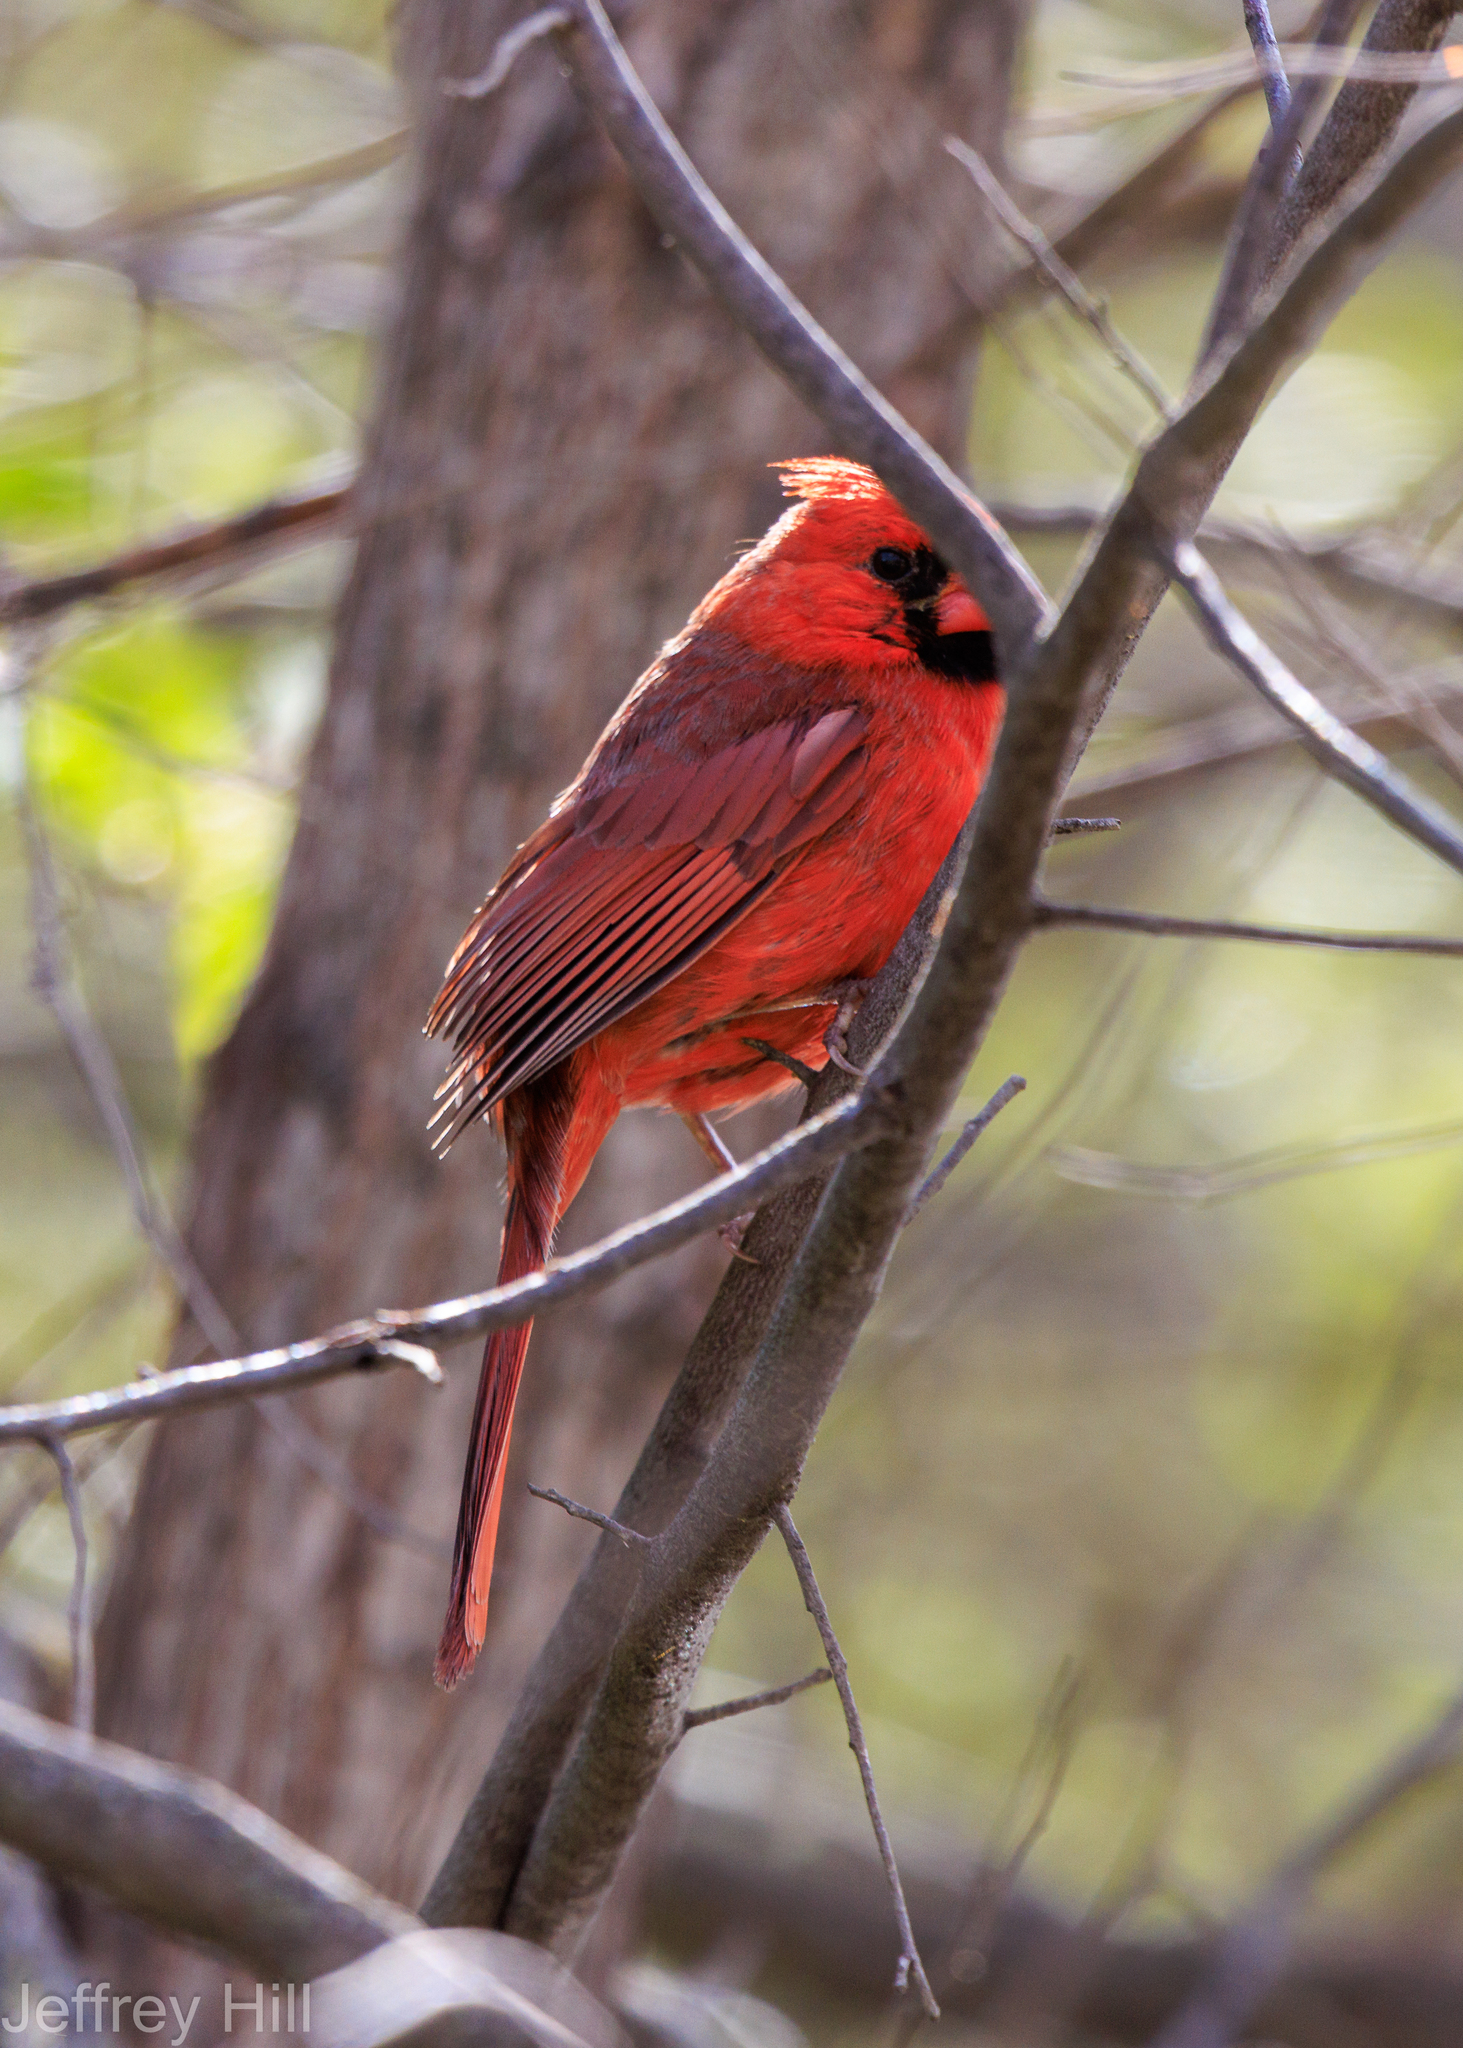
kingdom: Animalia
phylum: Chordata
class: Aves
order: Passeriformes
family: Cardinalidae
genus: Cardinalis
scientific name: Cardinalis cardinalis
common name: Northern cardinal
